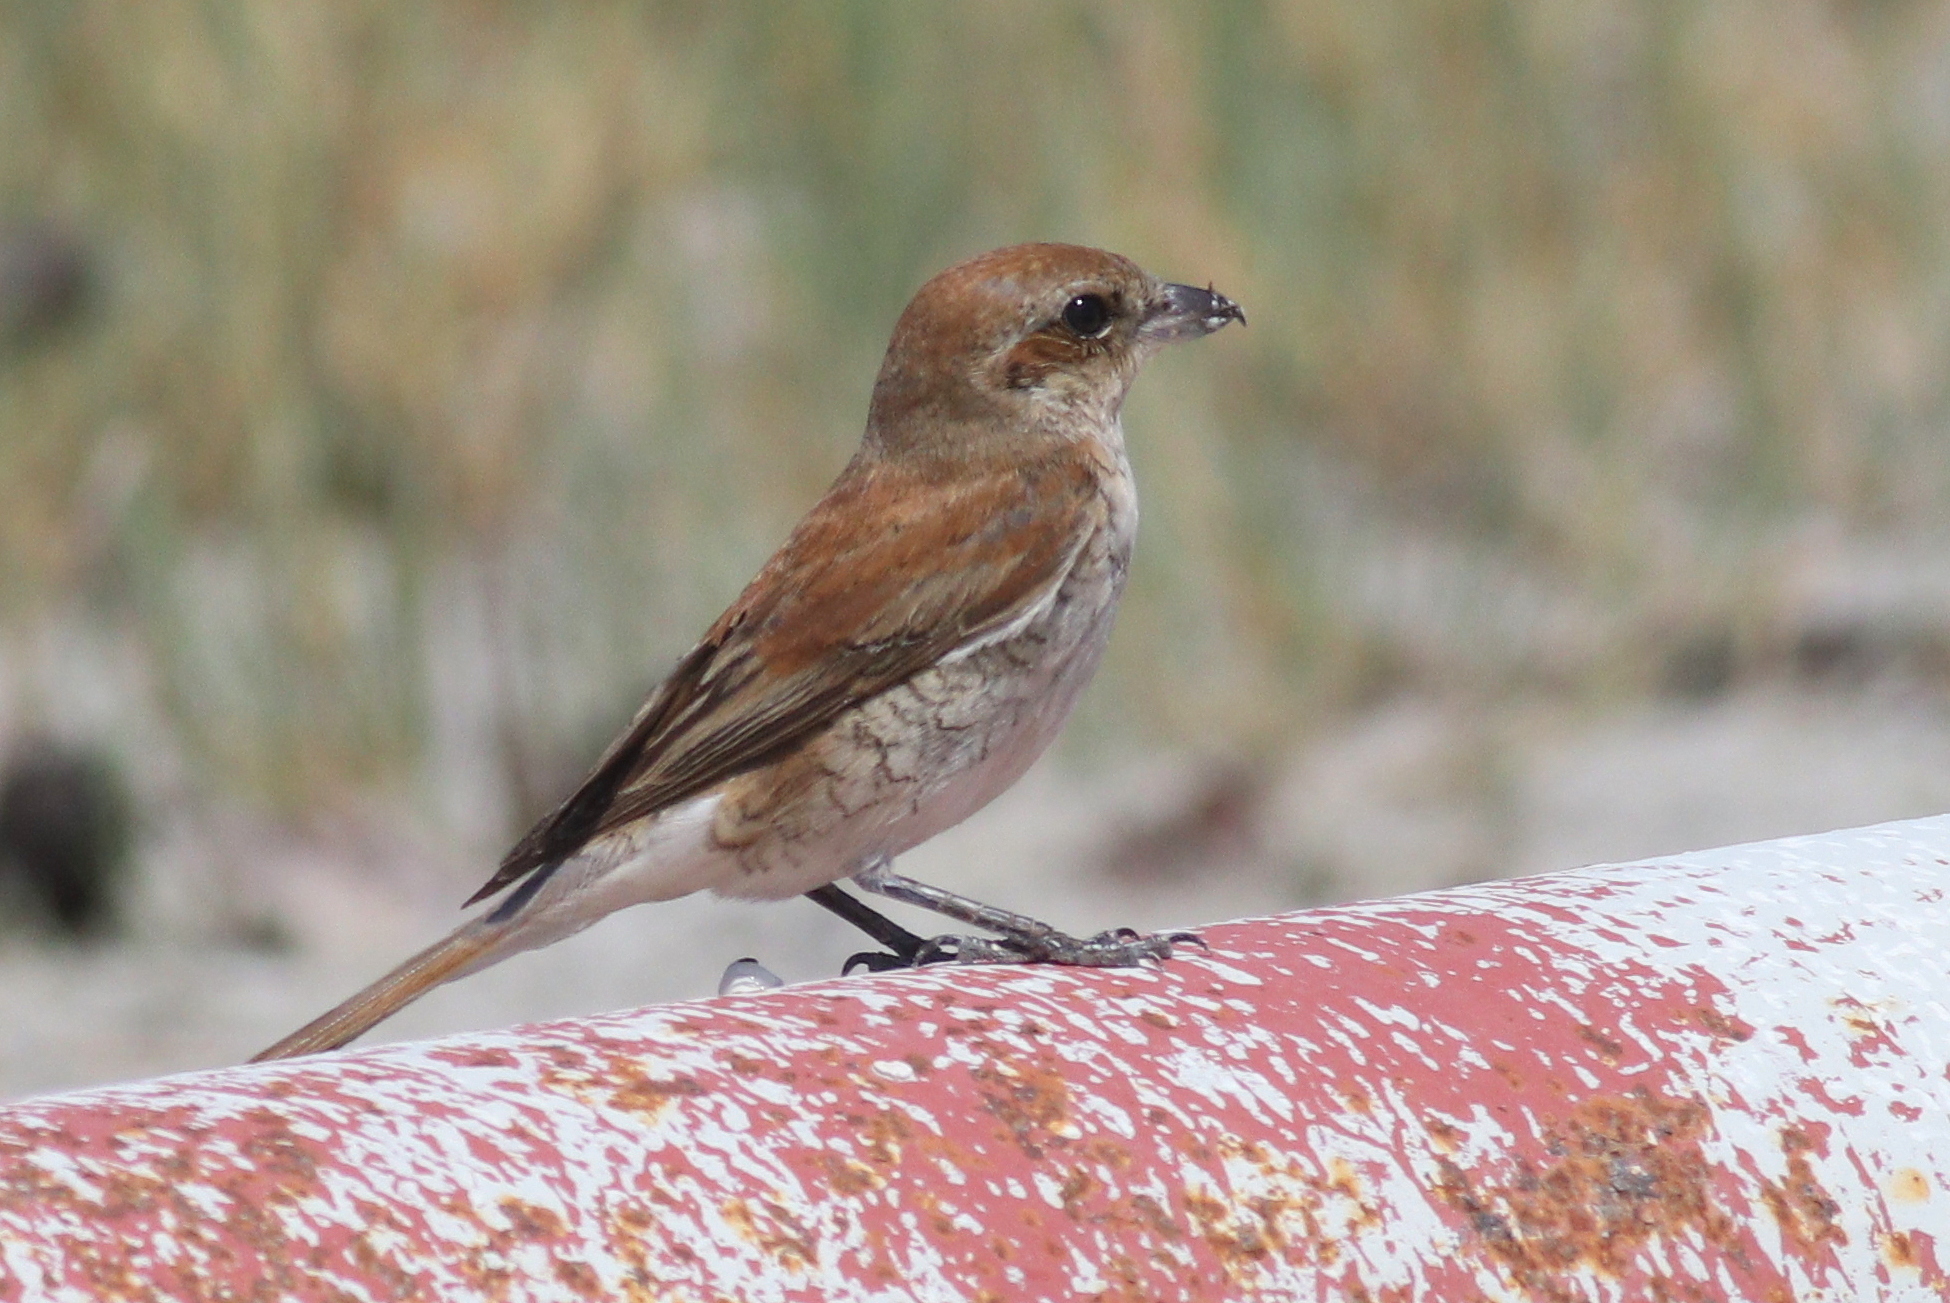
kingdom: Animalia
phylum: Chordata
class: Aves
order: Passeriformes
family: Laniidae
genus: Lanius
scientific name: Lanius collurio
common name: Red-backed shrike
